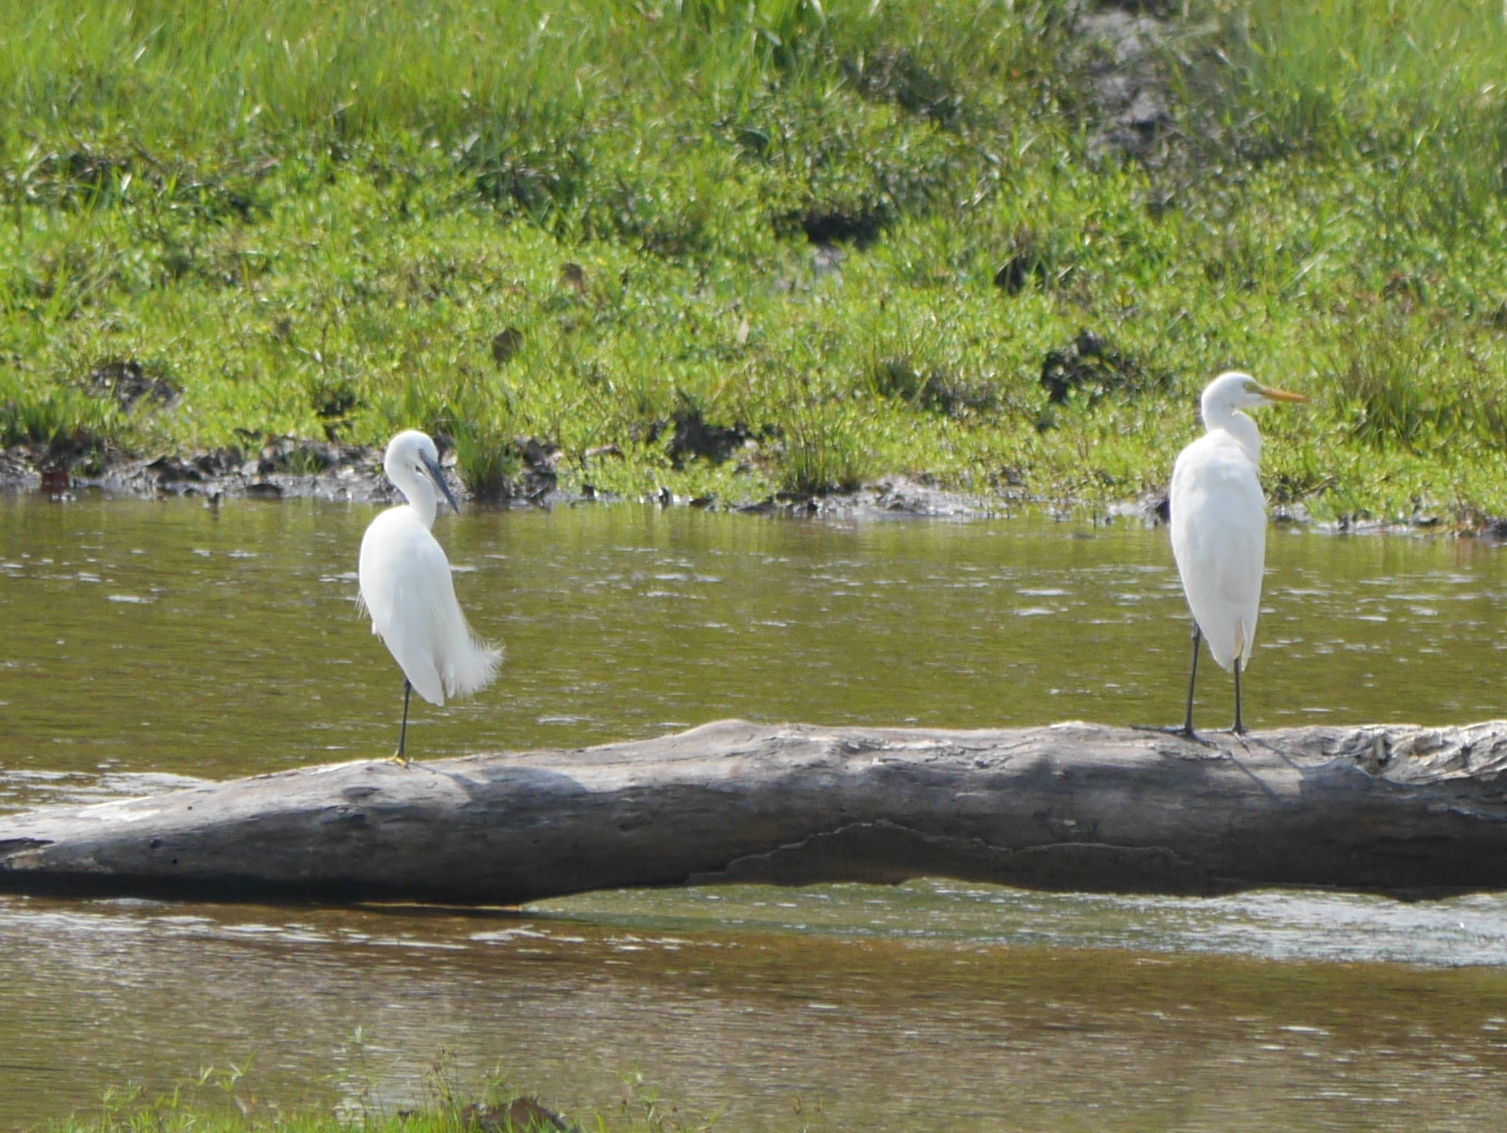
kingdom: Animalia
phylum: Chordata
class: Aves
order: Pelecaniformes
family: Ardeidae
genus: Egretta
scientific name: Egretta intermedia
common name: Intermediate egret
